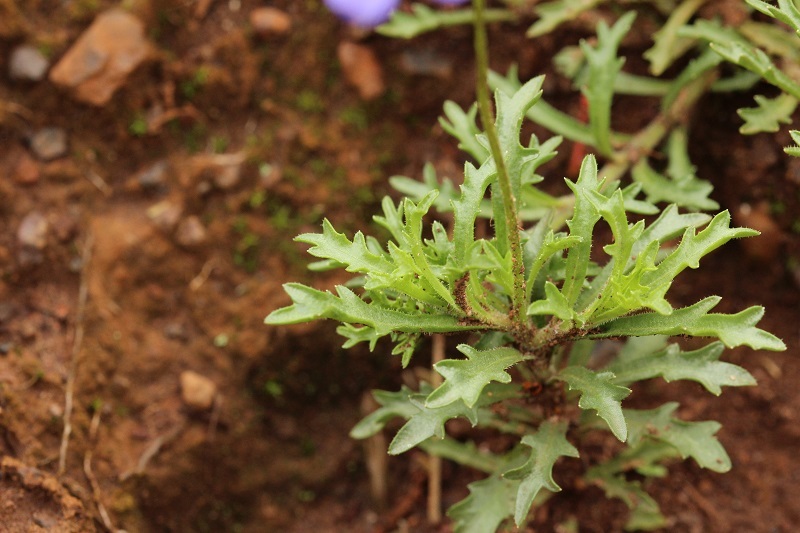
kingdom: Plantae
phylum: Tracheophyta
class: Magnoliopsida
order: Asterales
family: Campanulaceae
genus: Lobelia
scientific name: Lobelia tomentosa
